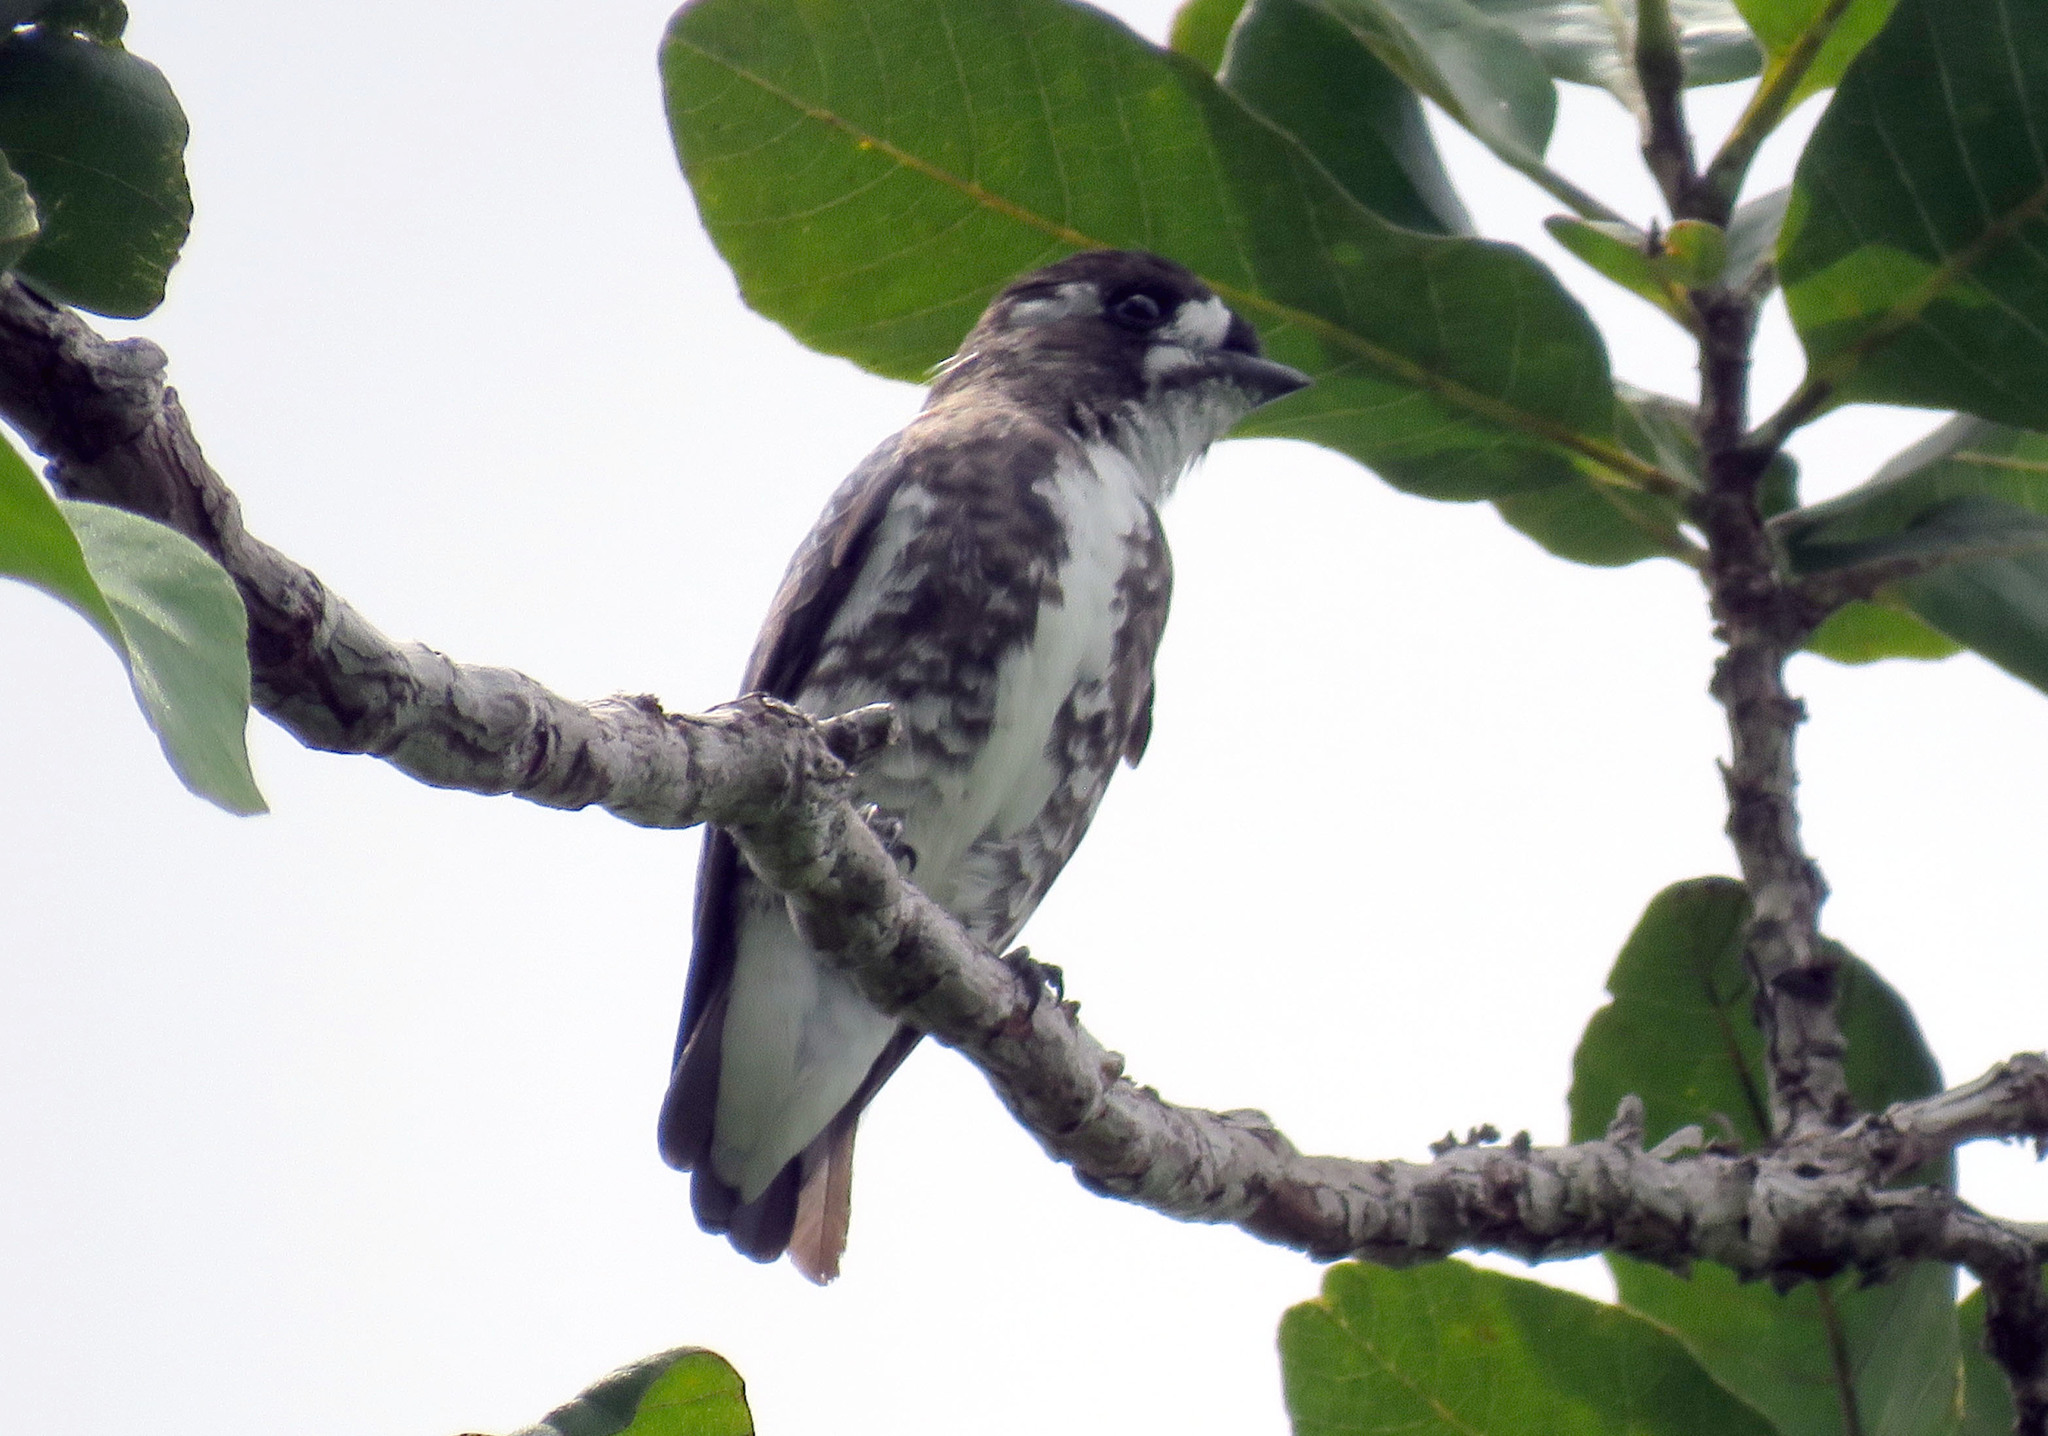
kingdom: Animalia
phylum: Chordata
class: Aves
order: Passeriformes
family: Cotingidae
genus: Iodopleura
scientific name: Iodopleura isabellae
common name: White-browed purpletuft
